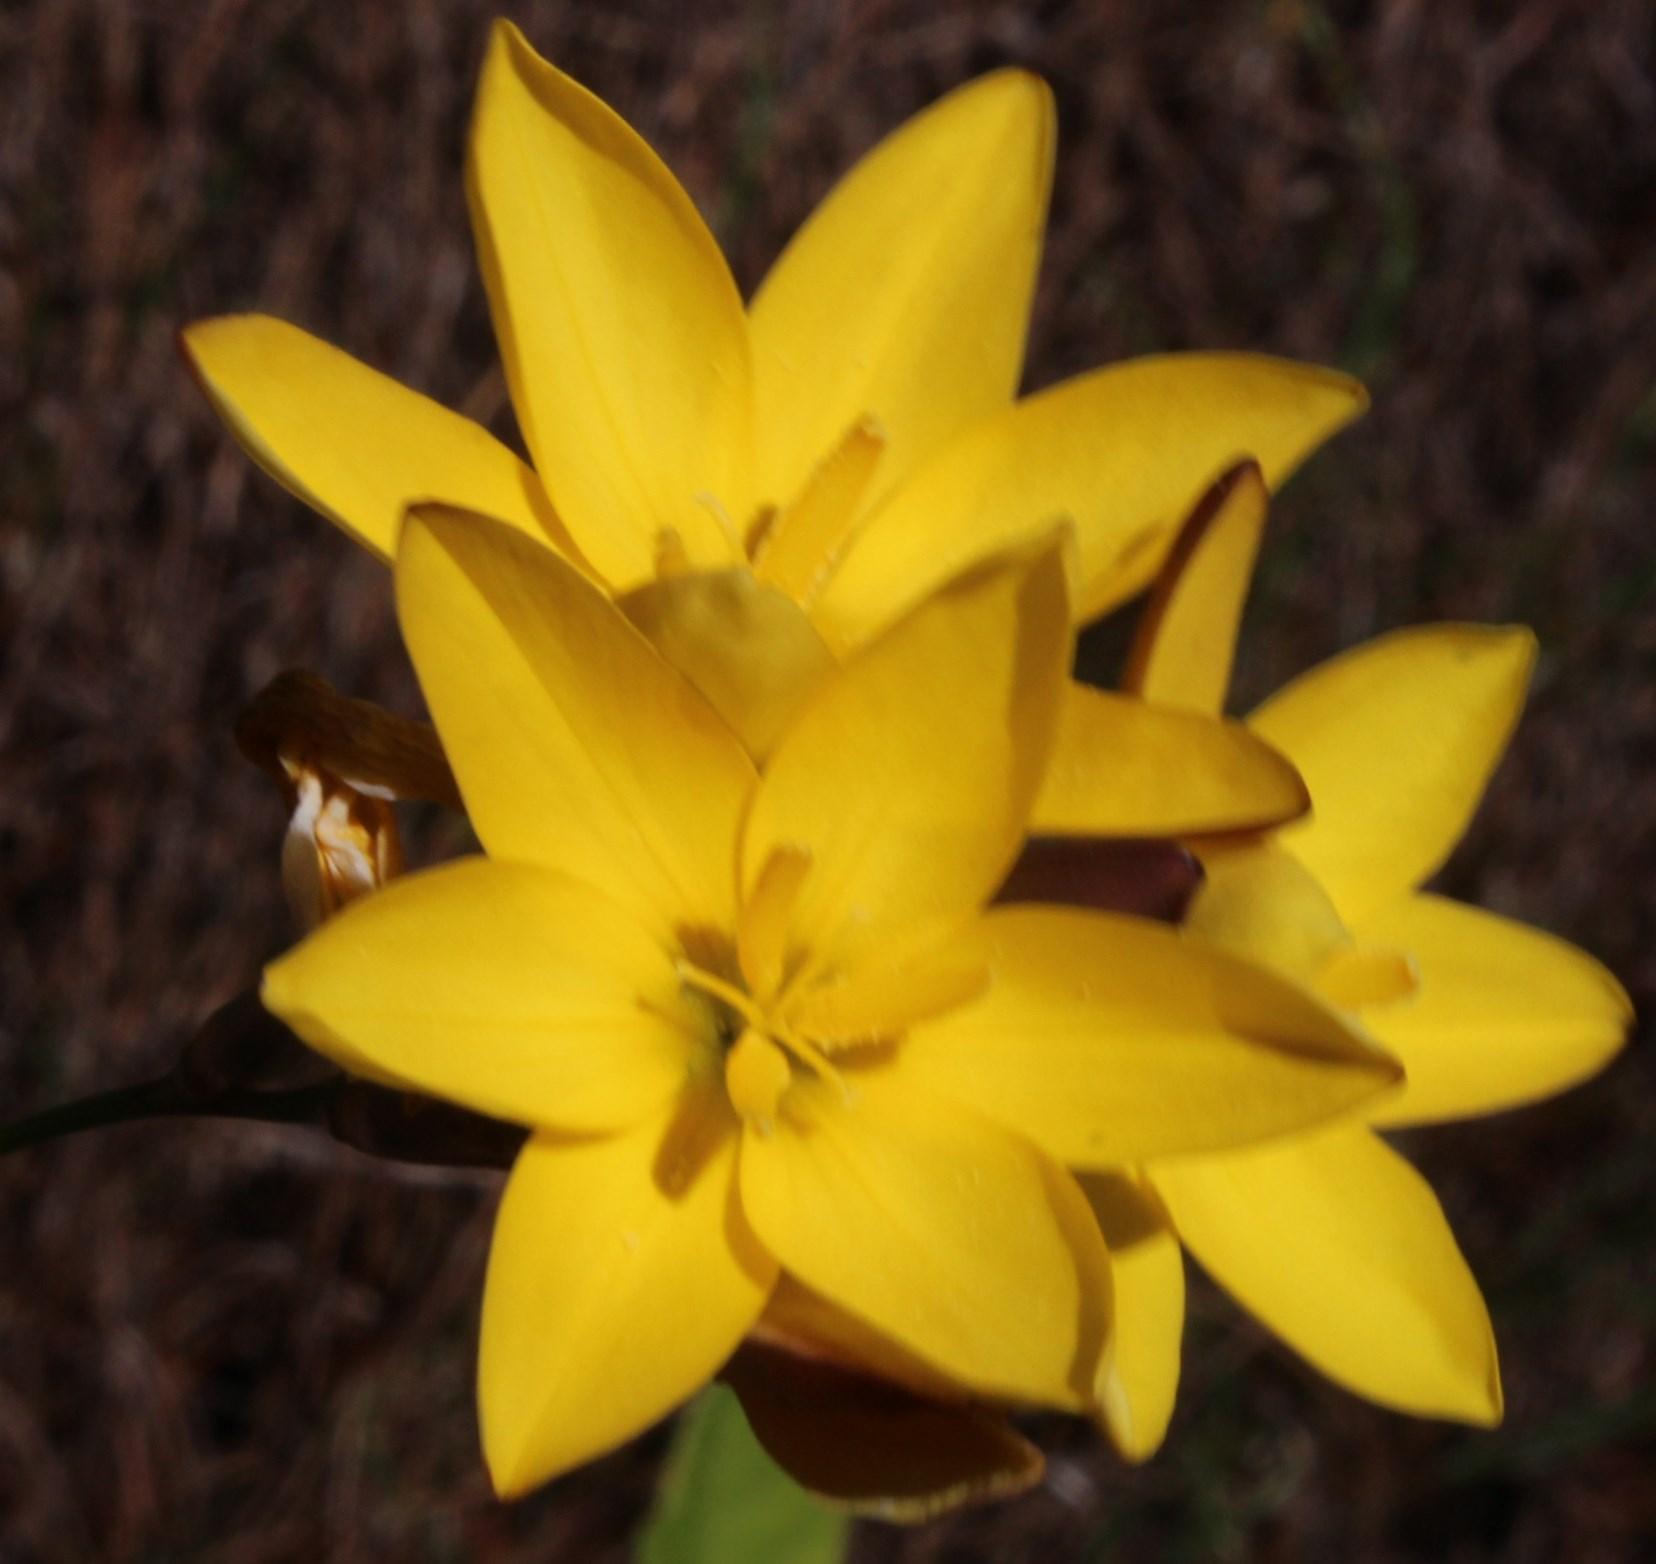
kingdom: Plantae
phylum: Tracheophyta
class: Liliopsida
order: Asparagales
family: Iridaceae
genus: Ixia
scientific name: Ixia dubia
